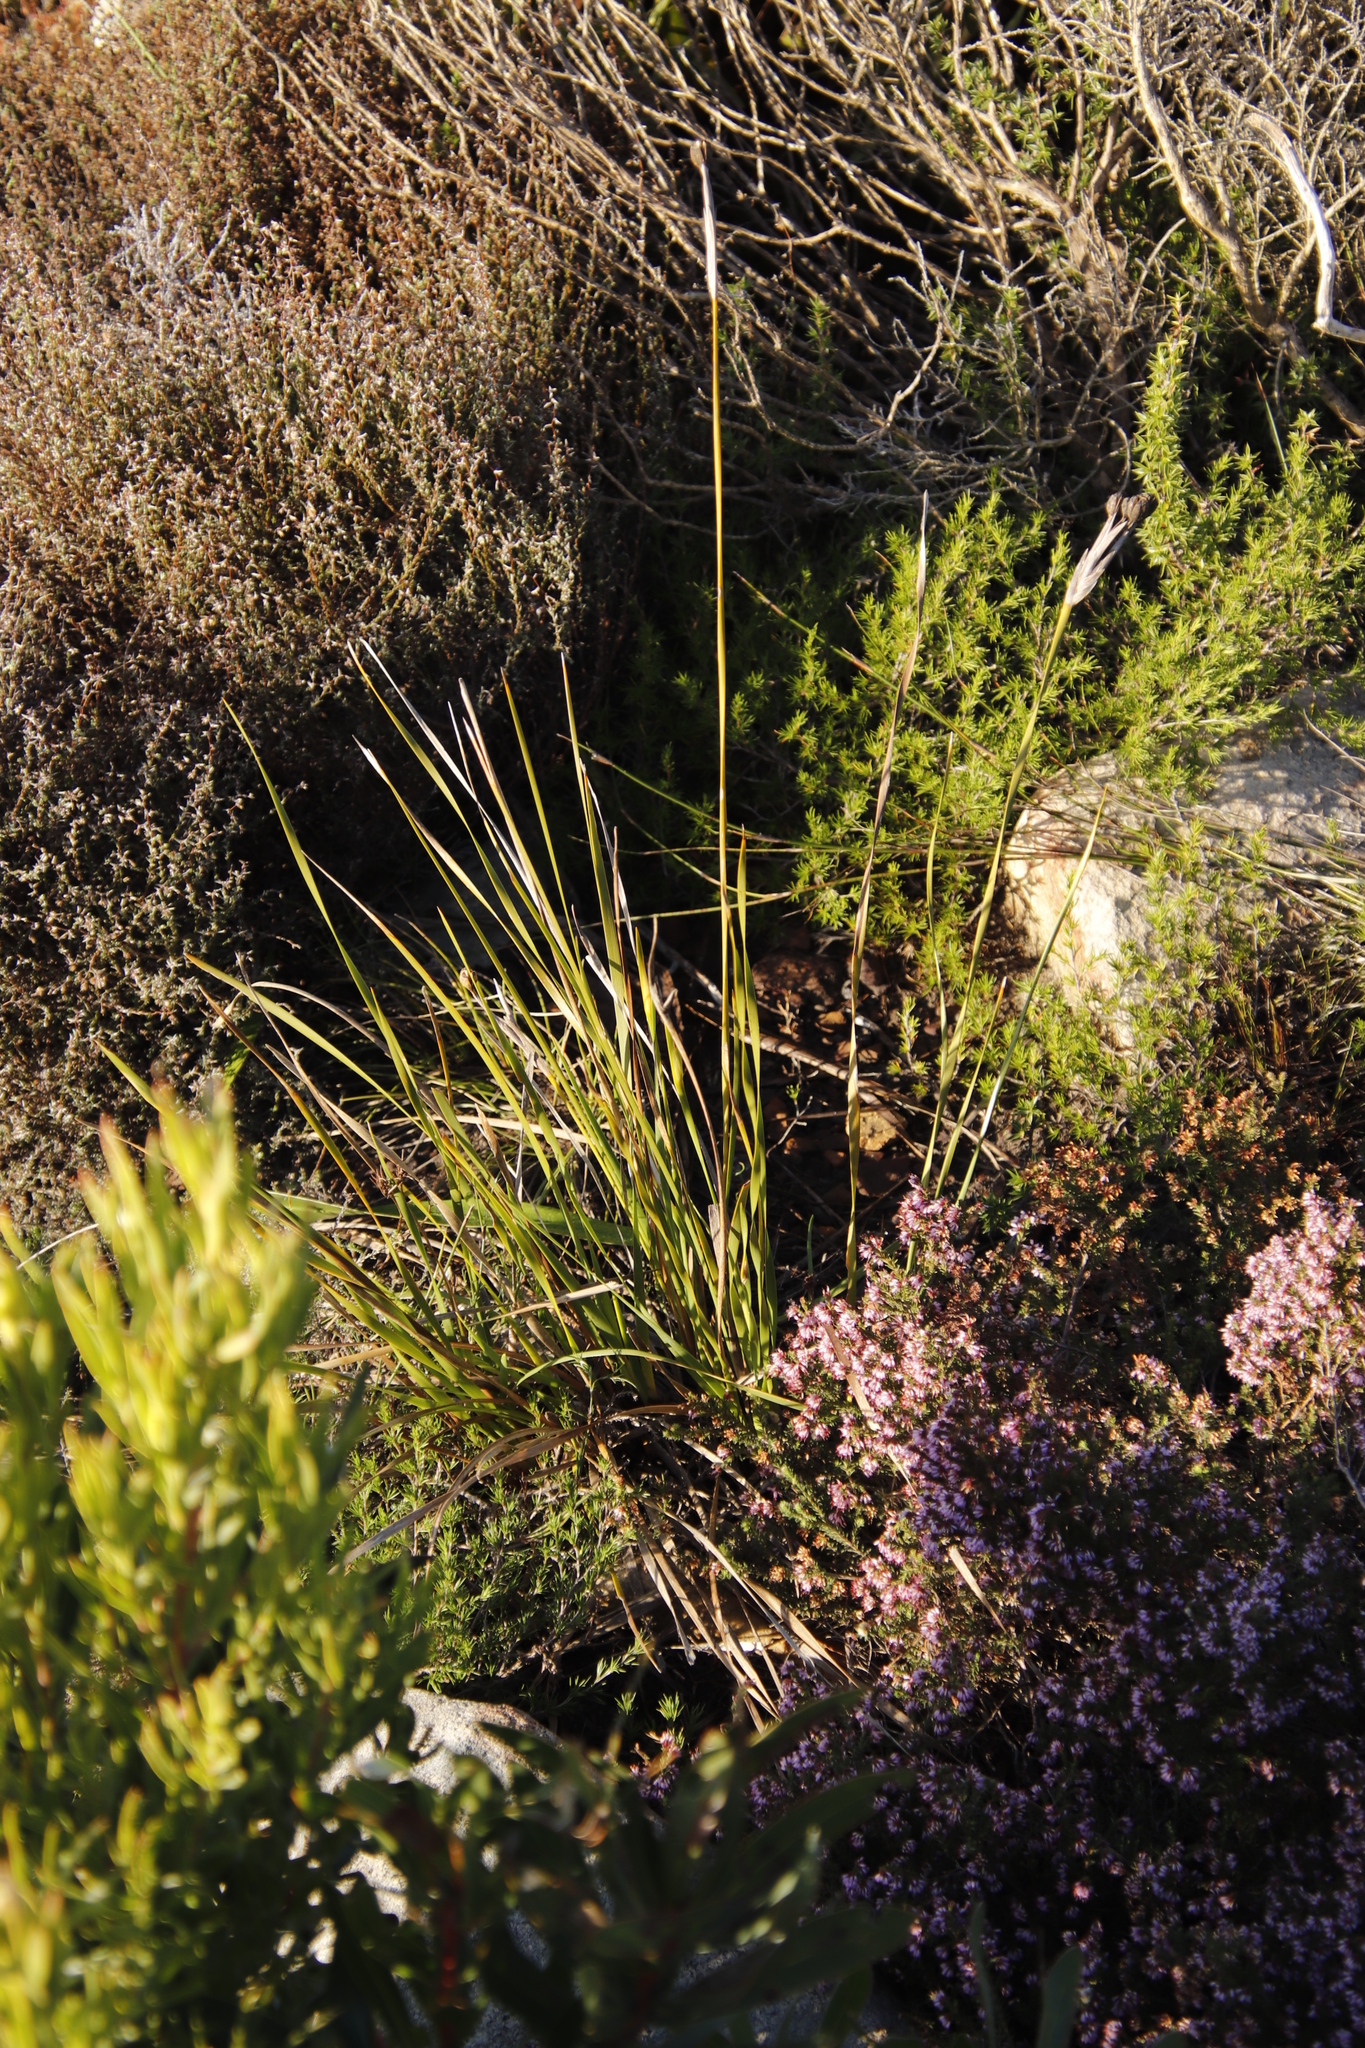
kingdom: Plantae
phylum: Tracheophyta
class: Liliopsida
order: Asparagales
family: Iridaceae
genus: Bobartia
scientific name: Bobartia gladiata
